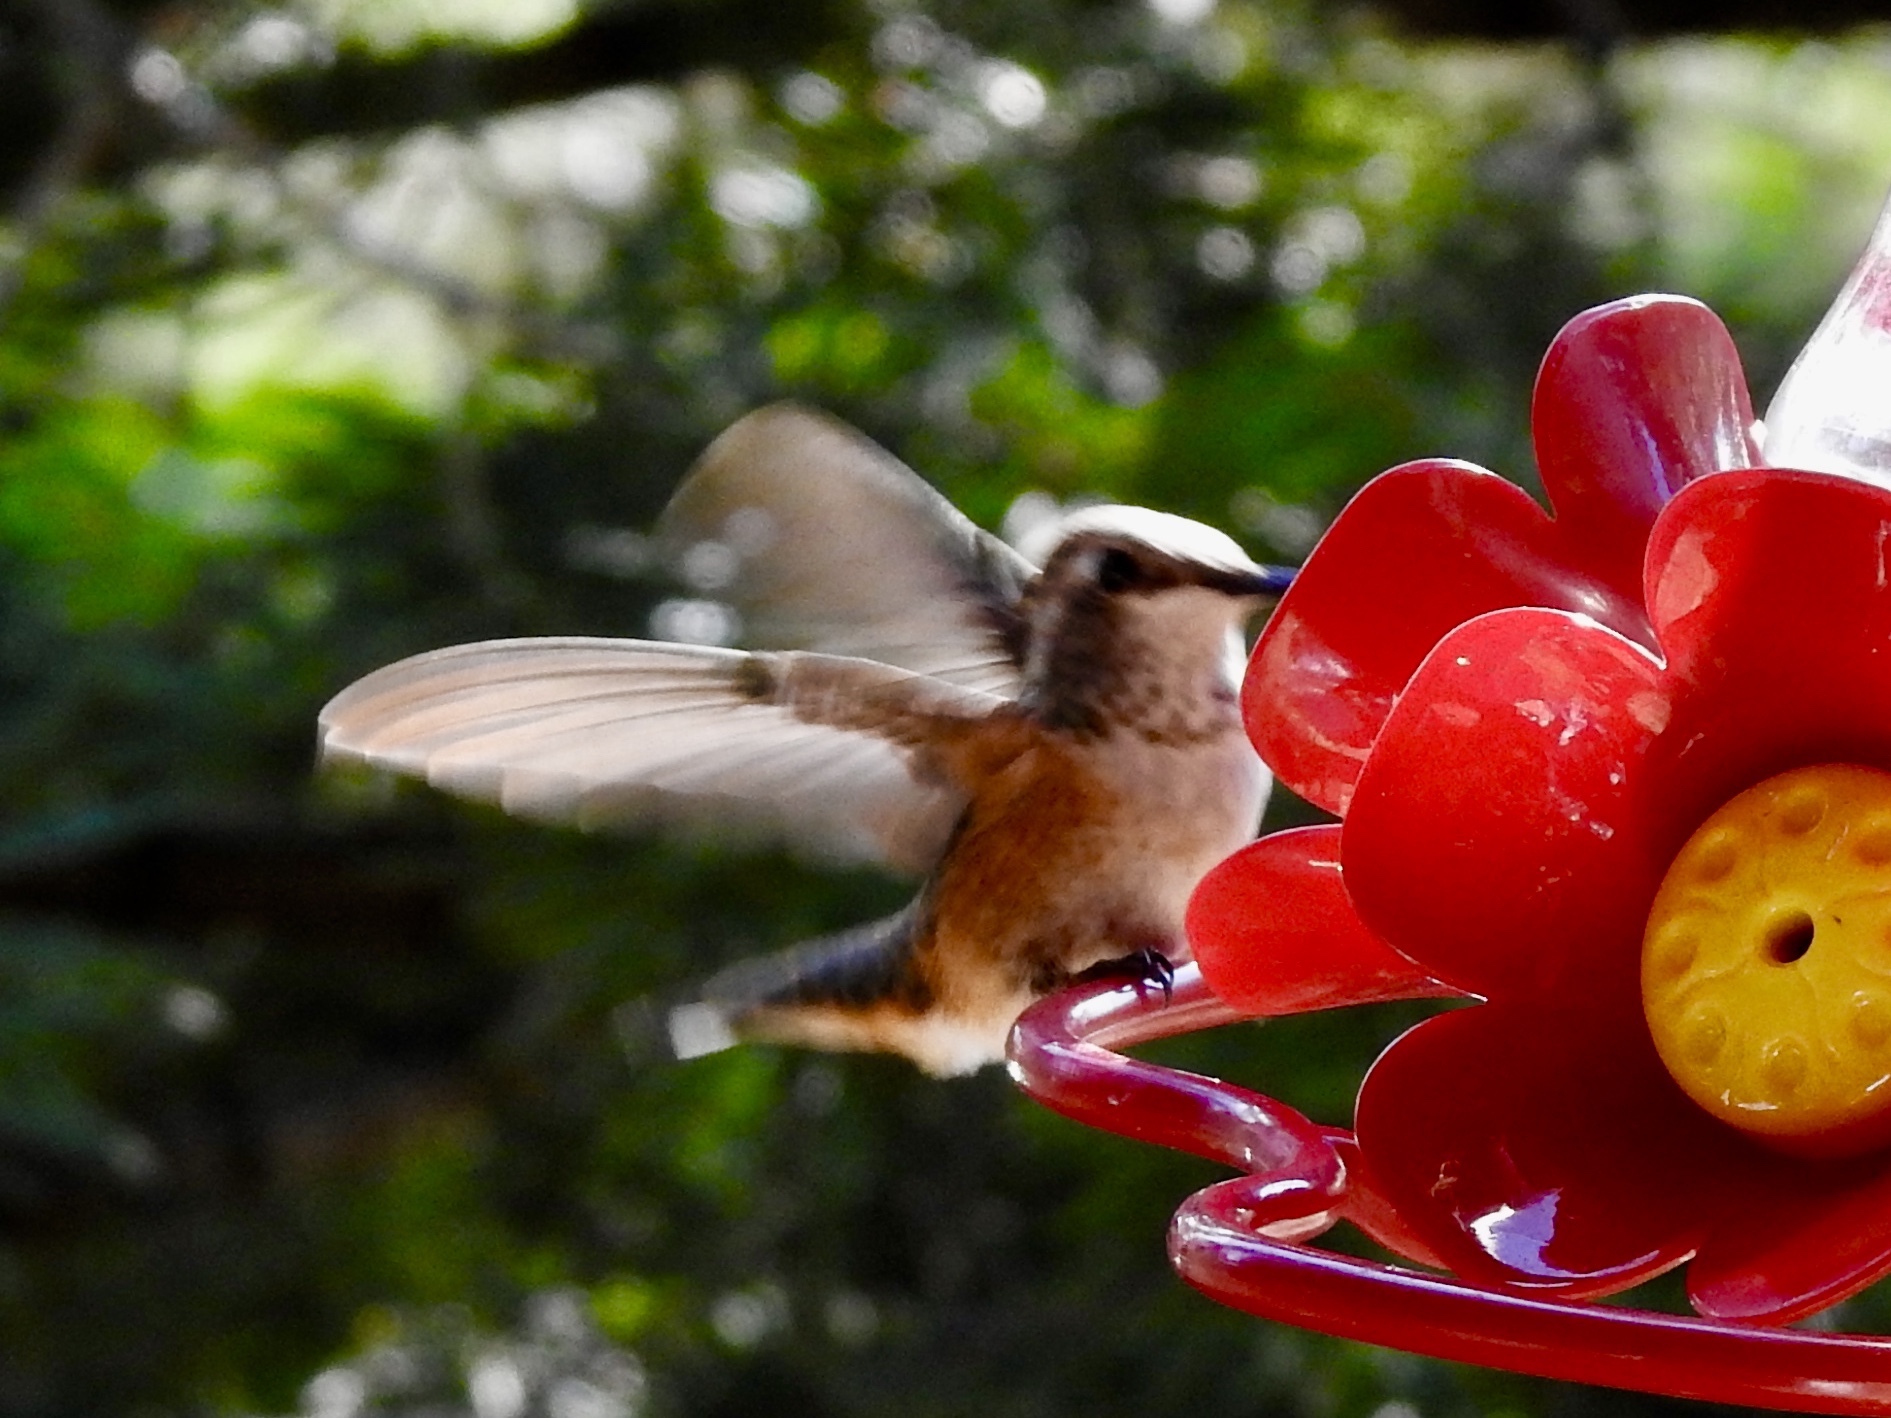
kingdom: Animalia
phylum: Chordata
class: Aves
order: Apodiformes
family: Trochilidae
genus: Selasphorus
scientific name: Selasphorus rufus
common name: Rufous hummingbird
